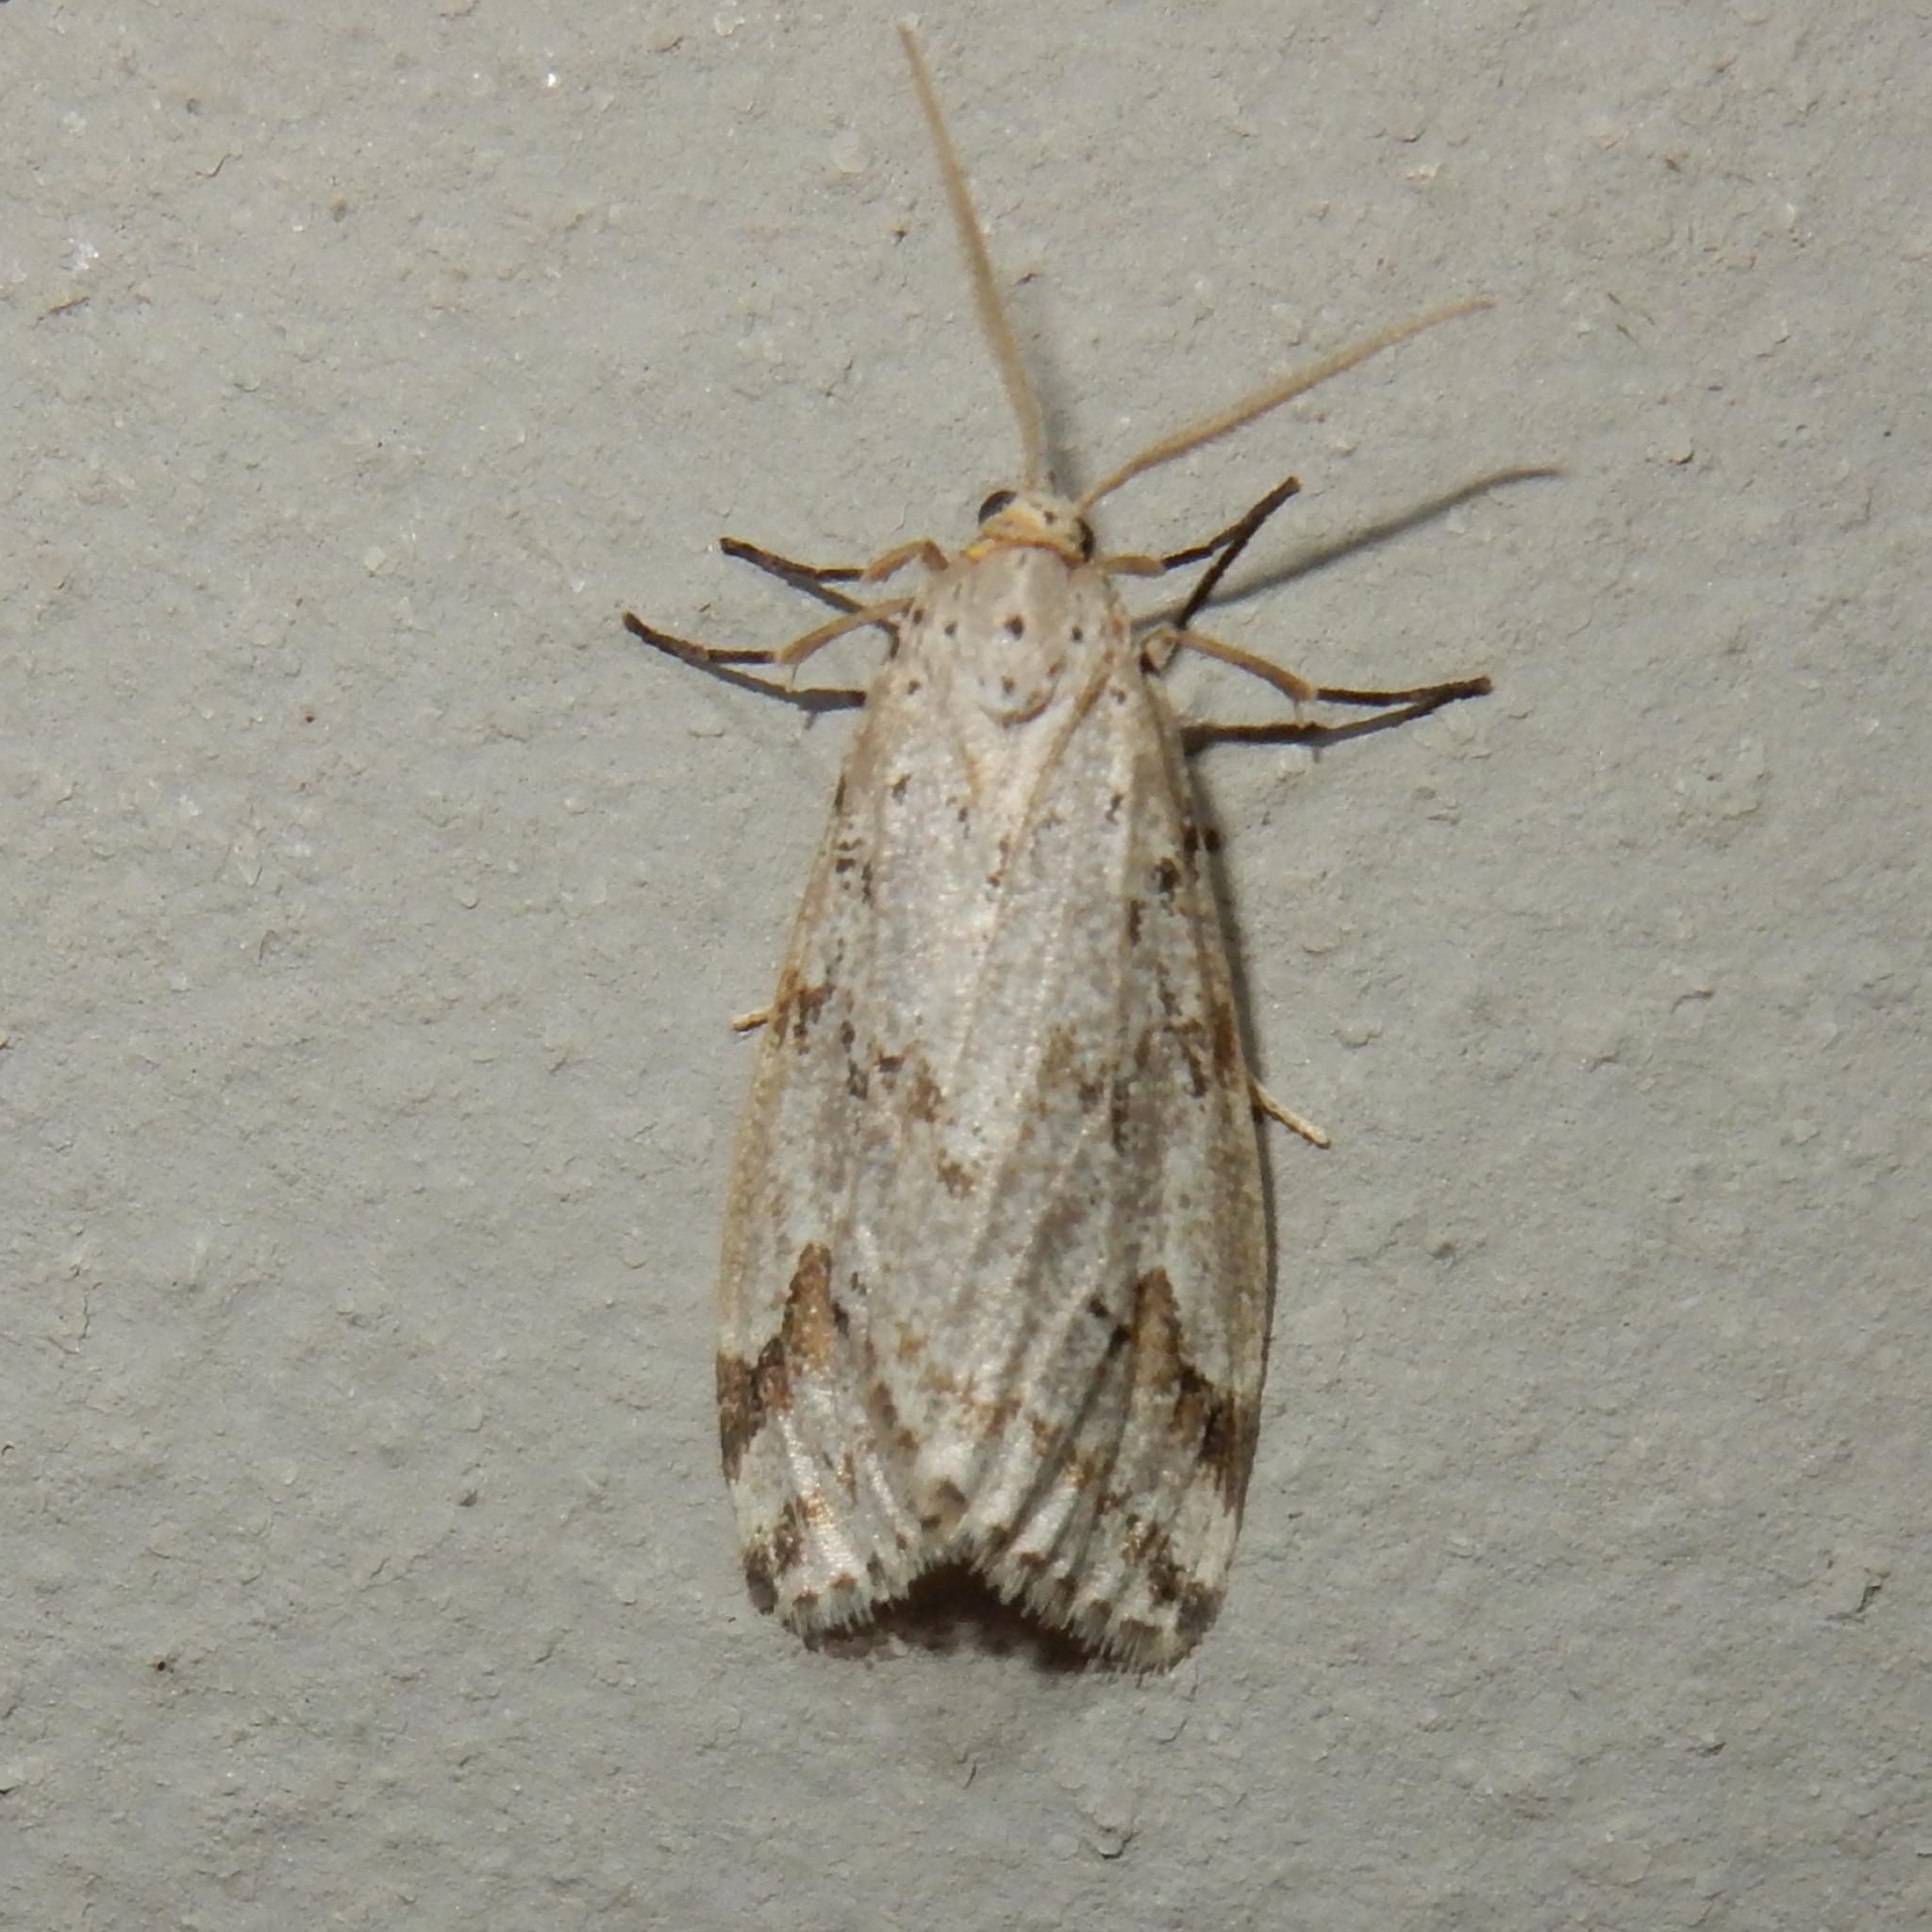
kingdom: Animalia
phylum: Arthropoda
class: Insecta
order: Lepidoptera
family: Erebidae
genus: Galtara
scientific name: Galtara rostrata
